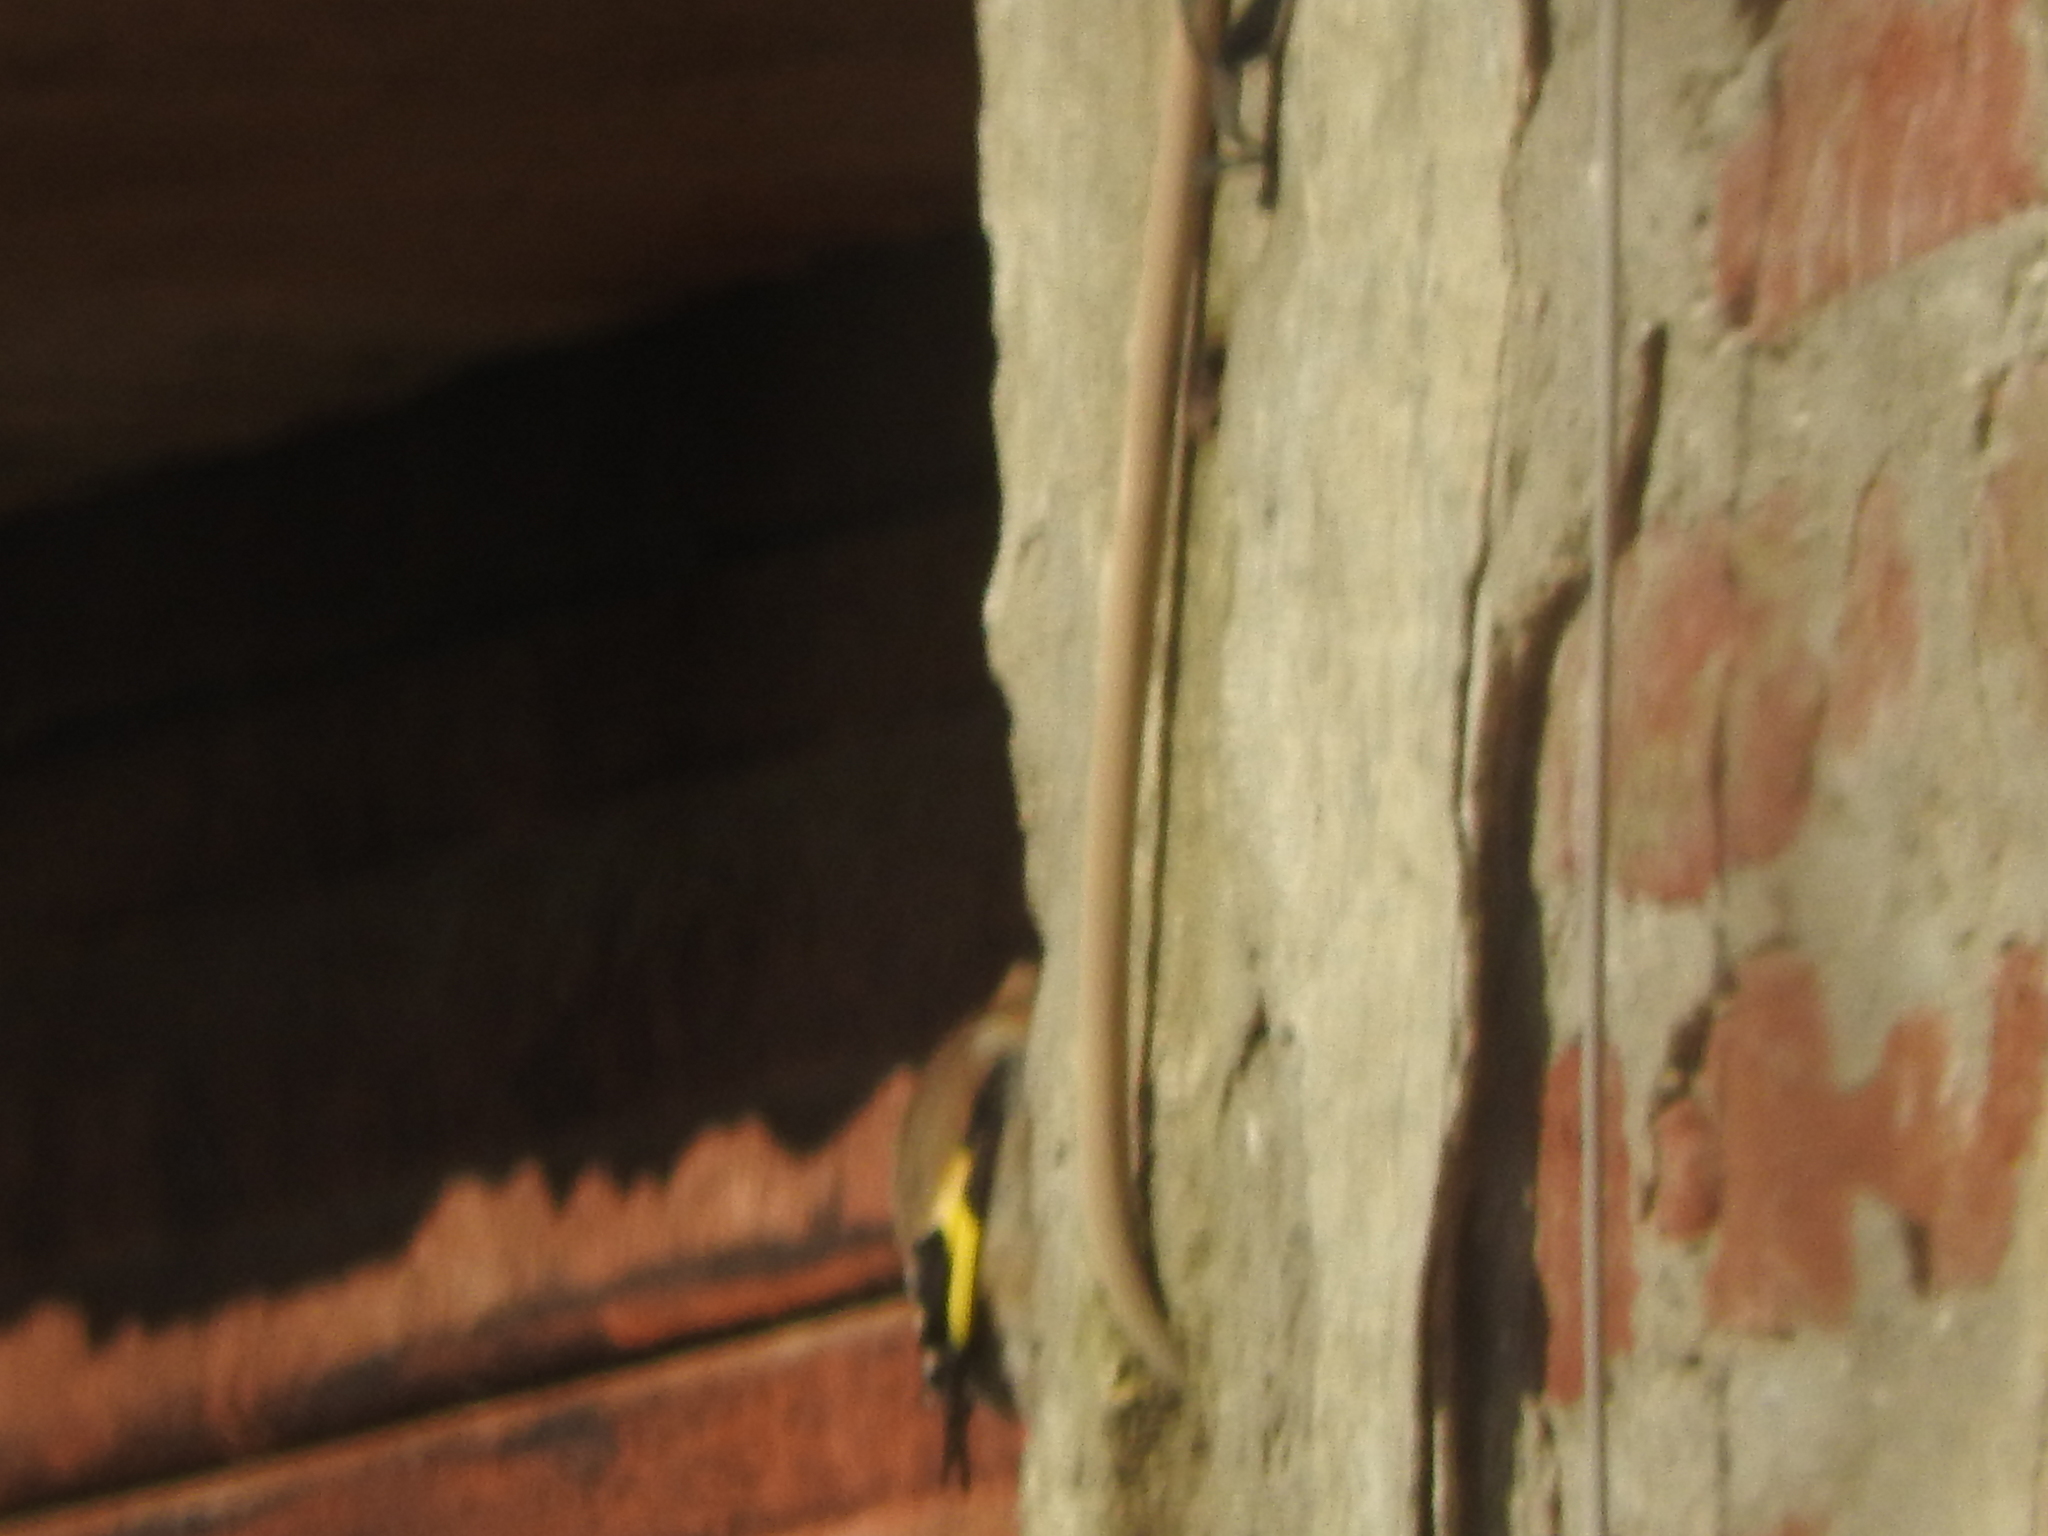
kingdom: Animalia
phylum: Chordata
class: Aves
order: Passeriformes
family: Fringillidae
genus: Carduelis
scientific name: Carduelis carduelis
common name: European goldfinch
